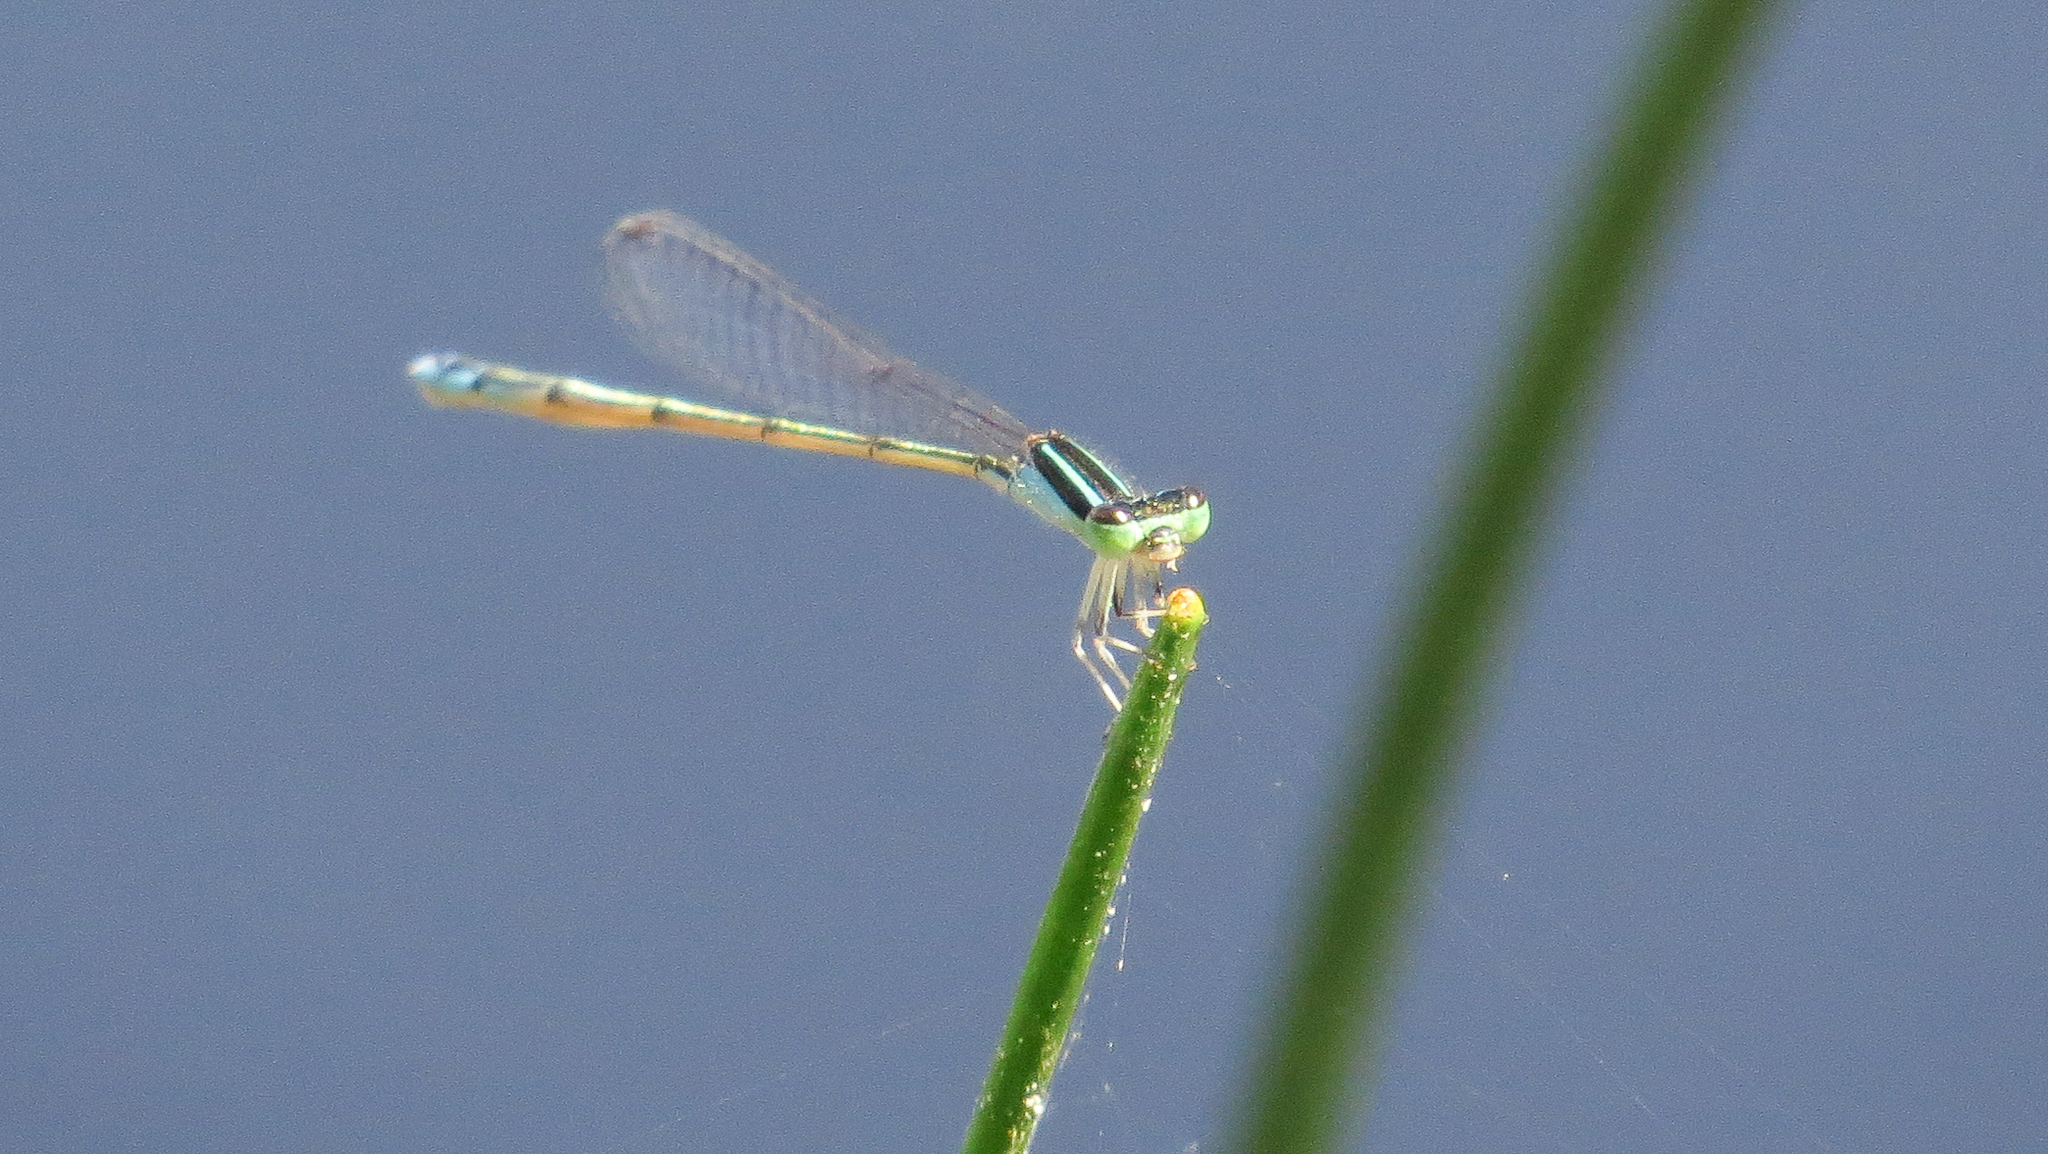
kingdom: Animalia
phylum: Arthropoda
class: Insecta
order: Odonata
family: Coenagrionidae
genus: Ischnura
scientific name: Ischnura aurora
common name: Gossamer damselfly
